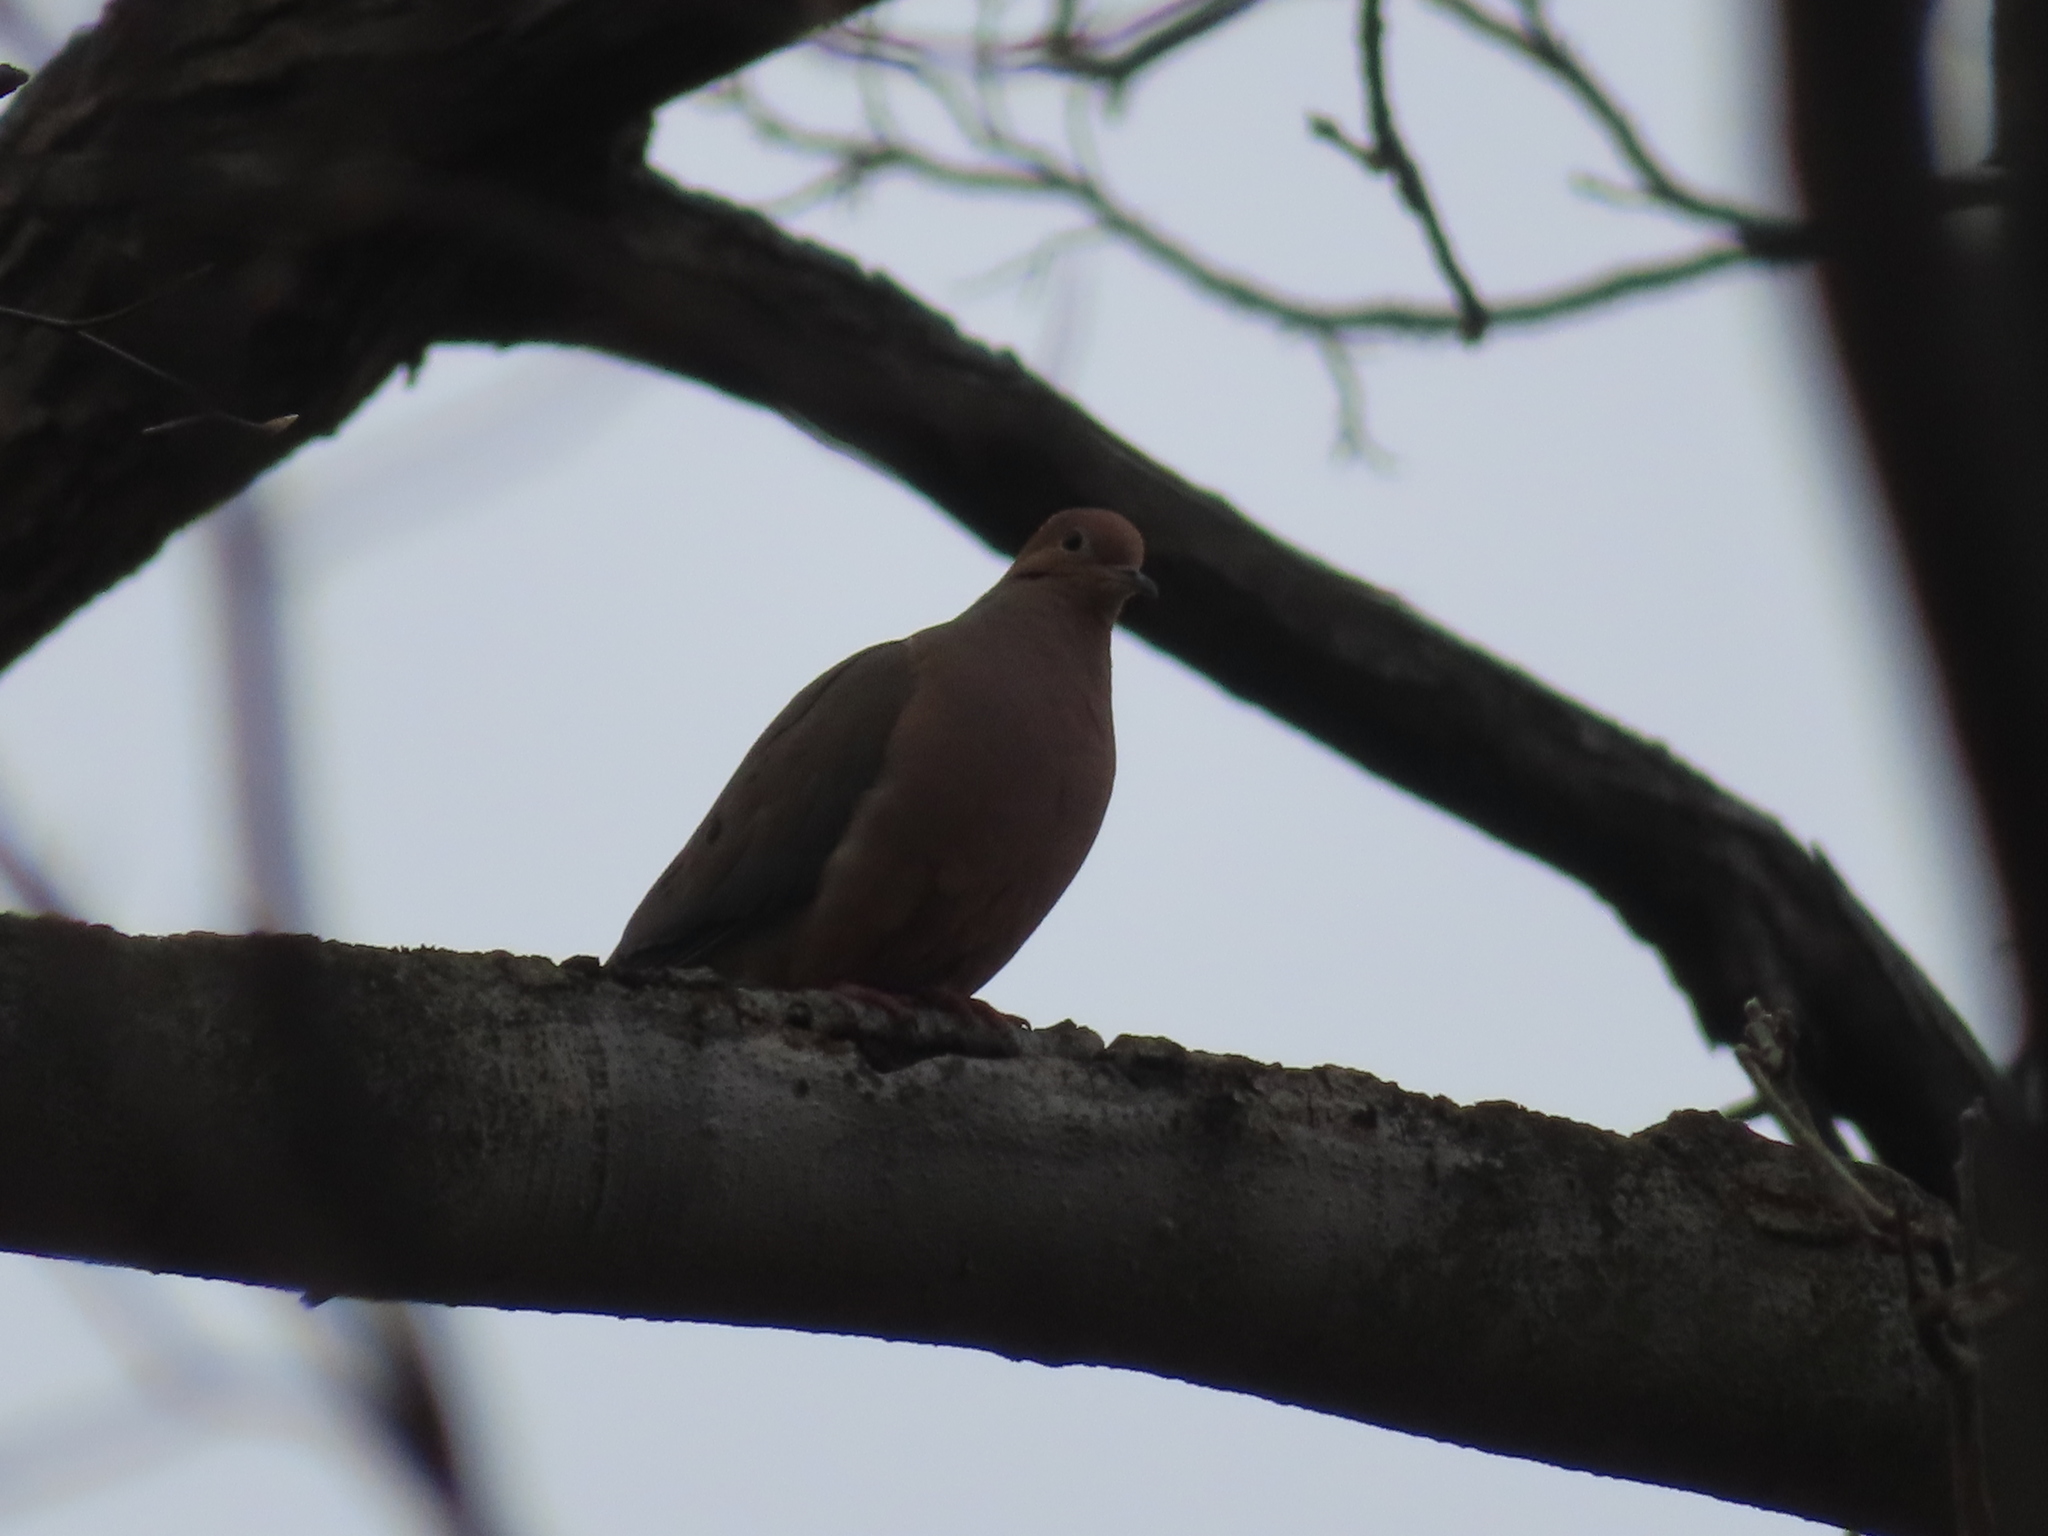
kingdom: Animalia
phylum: Chordata
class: Aves
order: Columbiformes
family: Columbidae
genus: Zenaida
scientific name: Zenaida macroura
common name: Mourning dove
